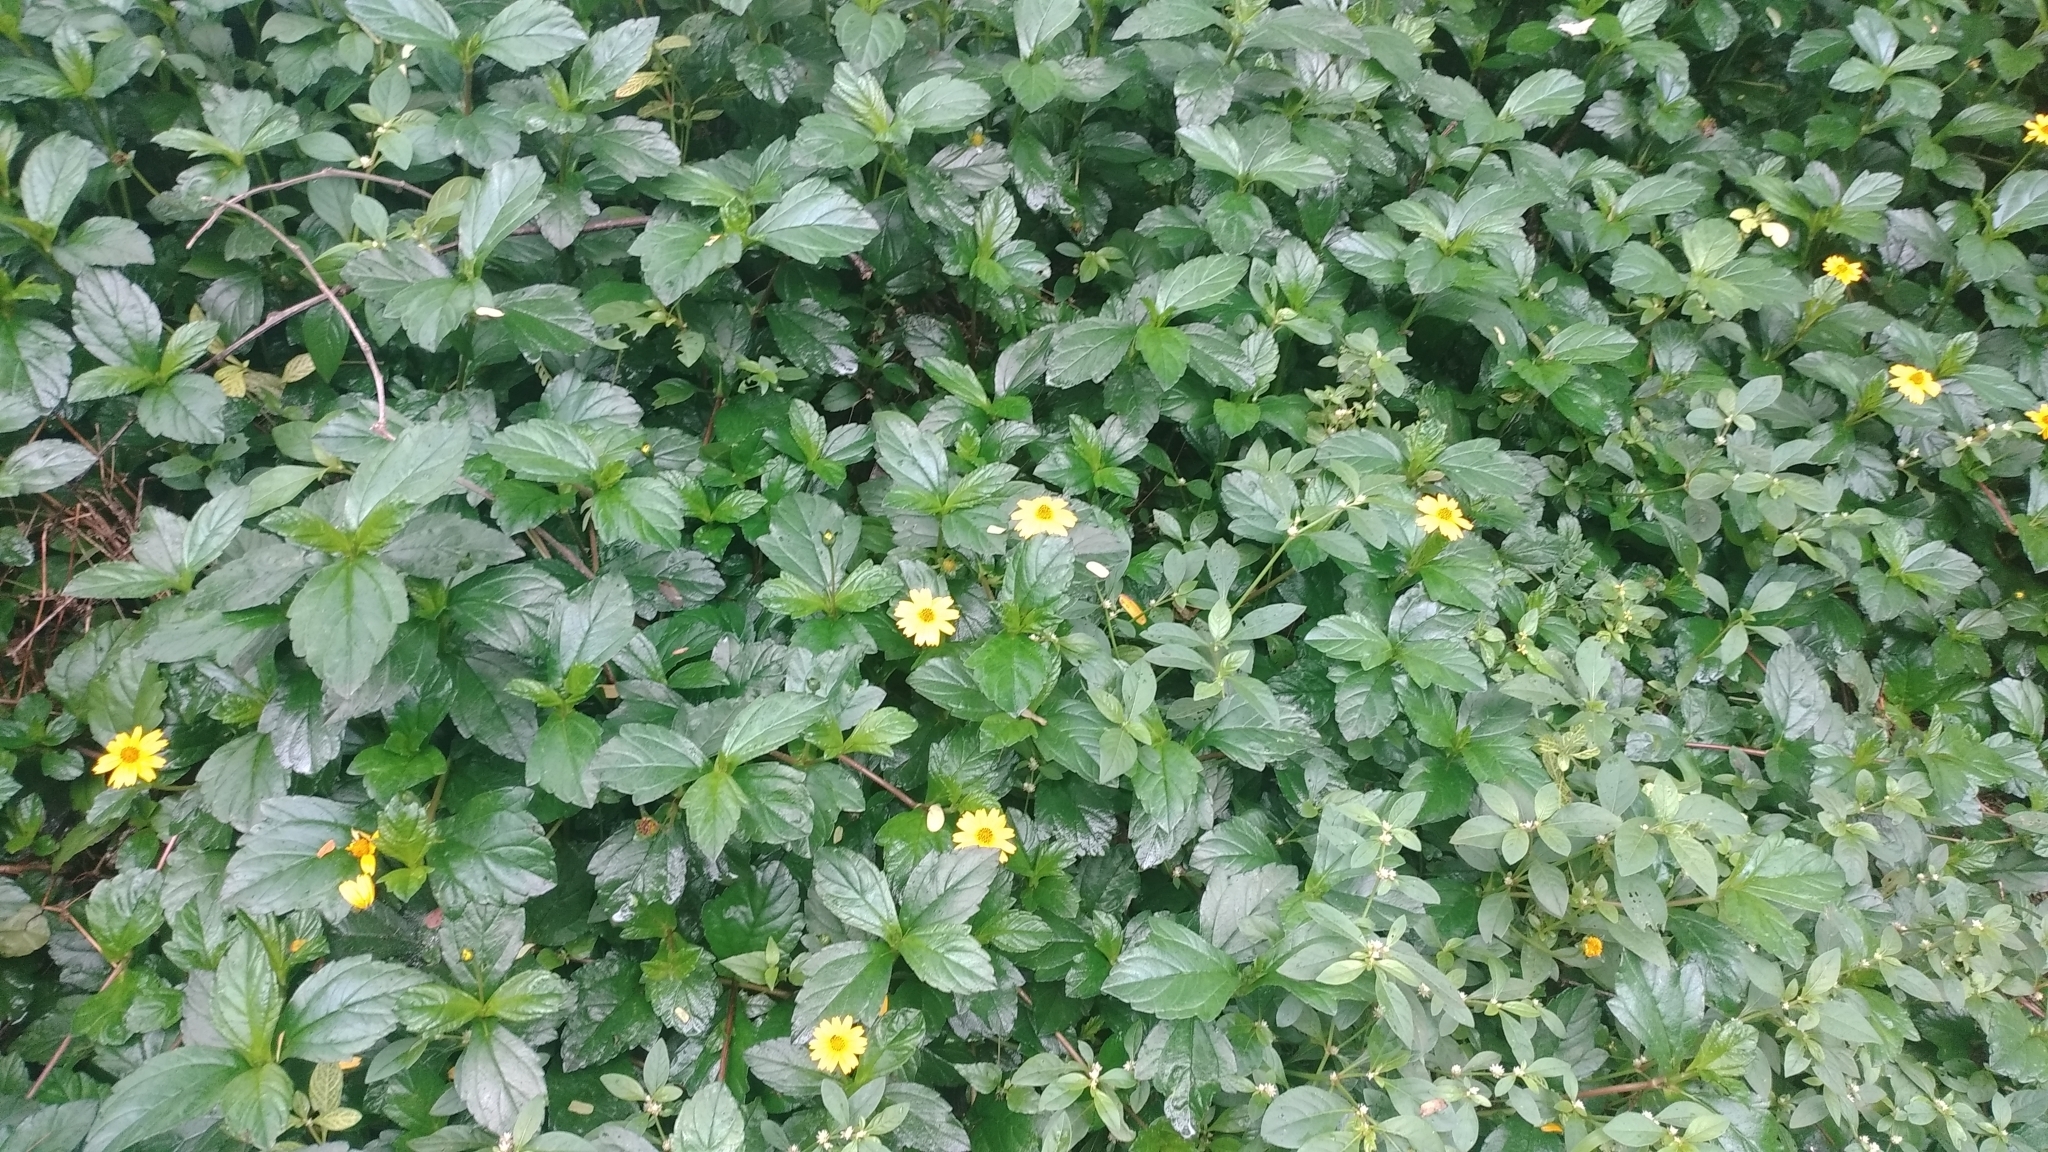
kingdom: Plantae
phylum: Tracheophyta
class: Magnoliopsida
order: Asterales
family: Asteraceae
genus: Sphagneticola
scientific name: Sphagneticola trilobata
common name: Bay biscayne creeping-oxeye
